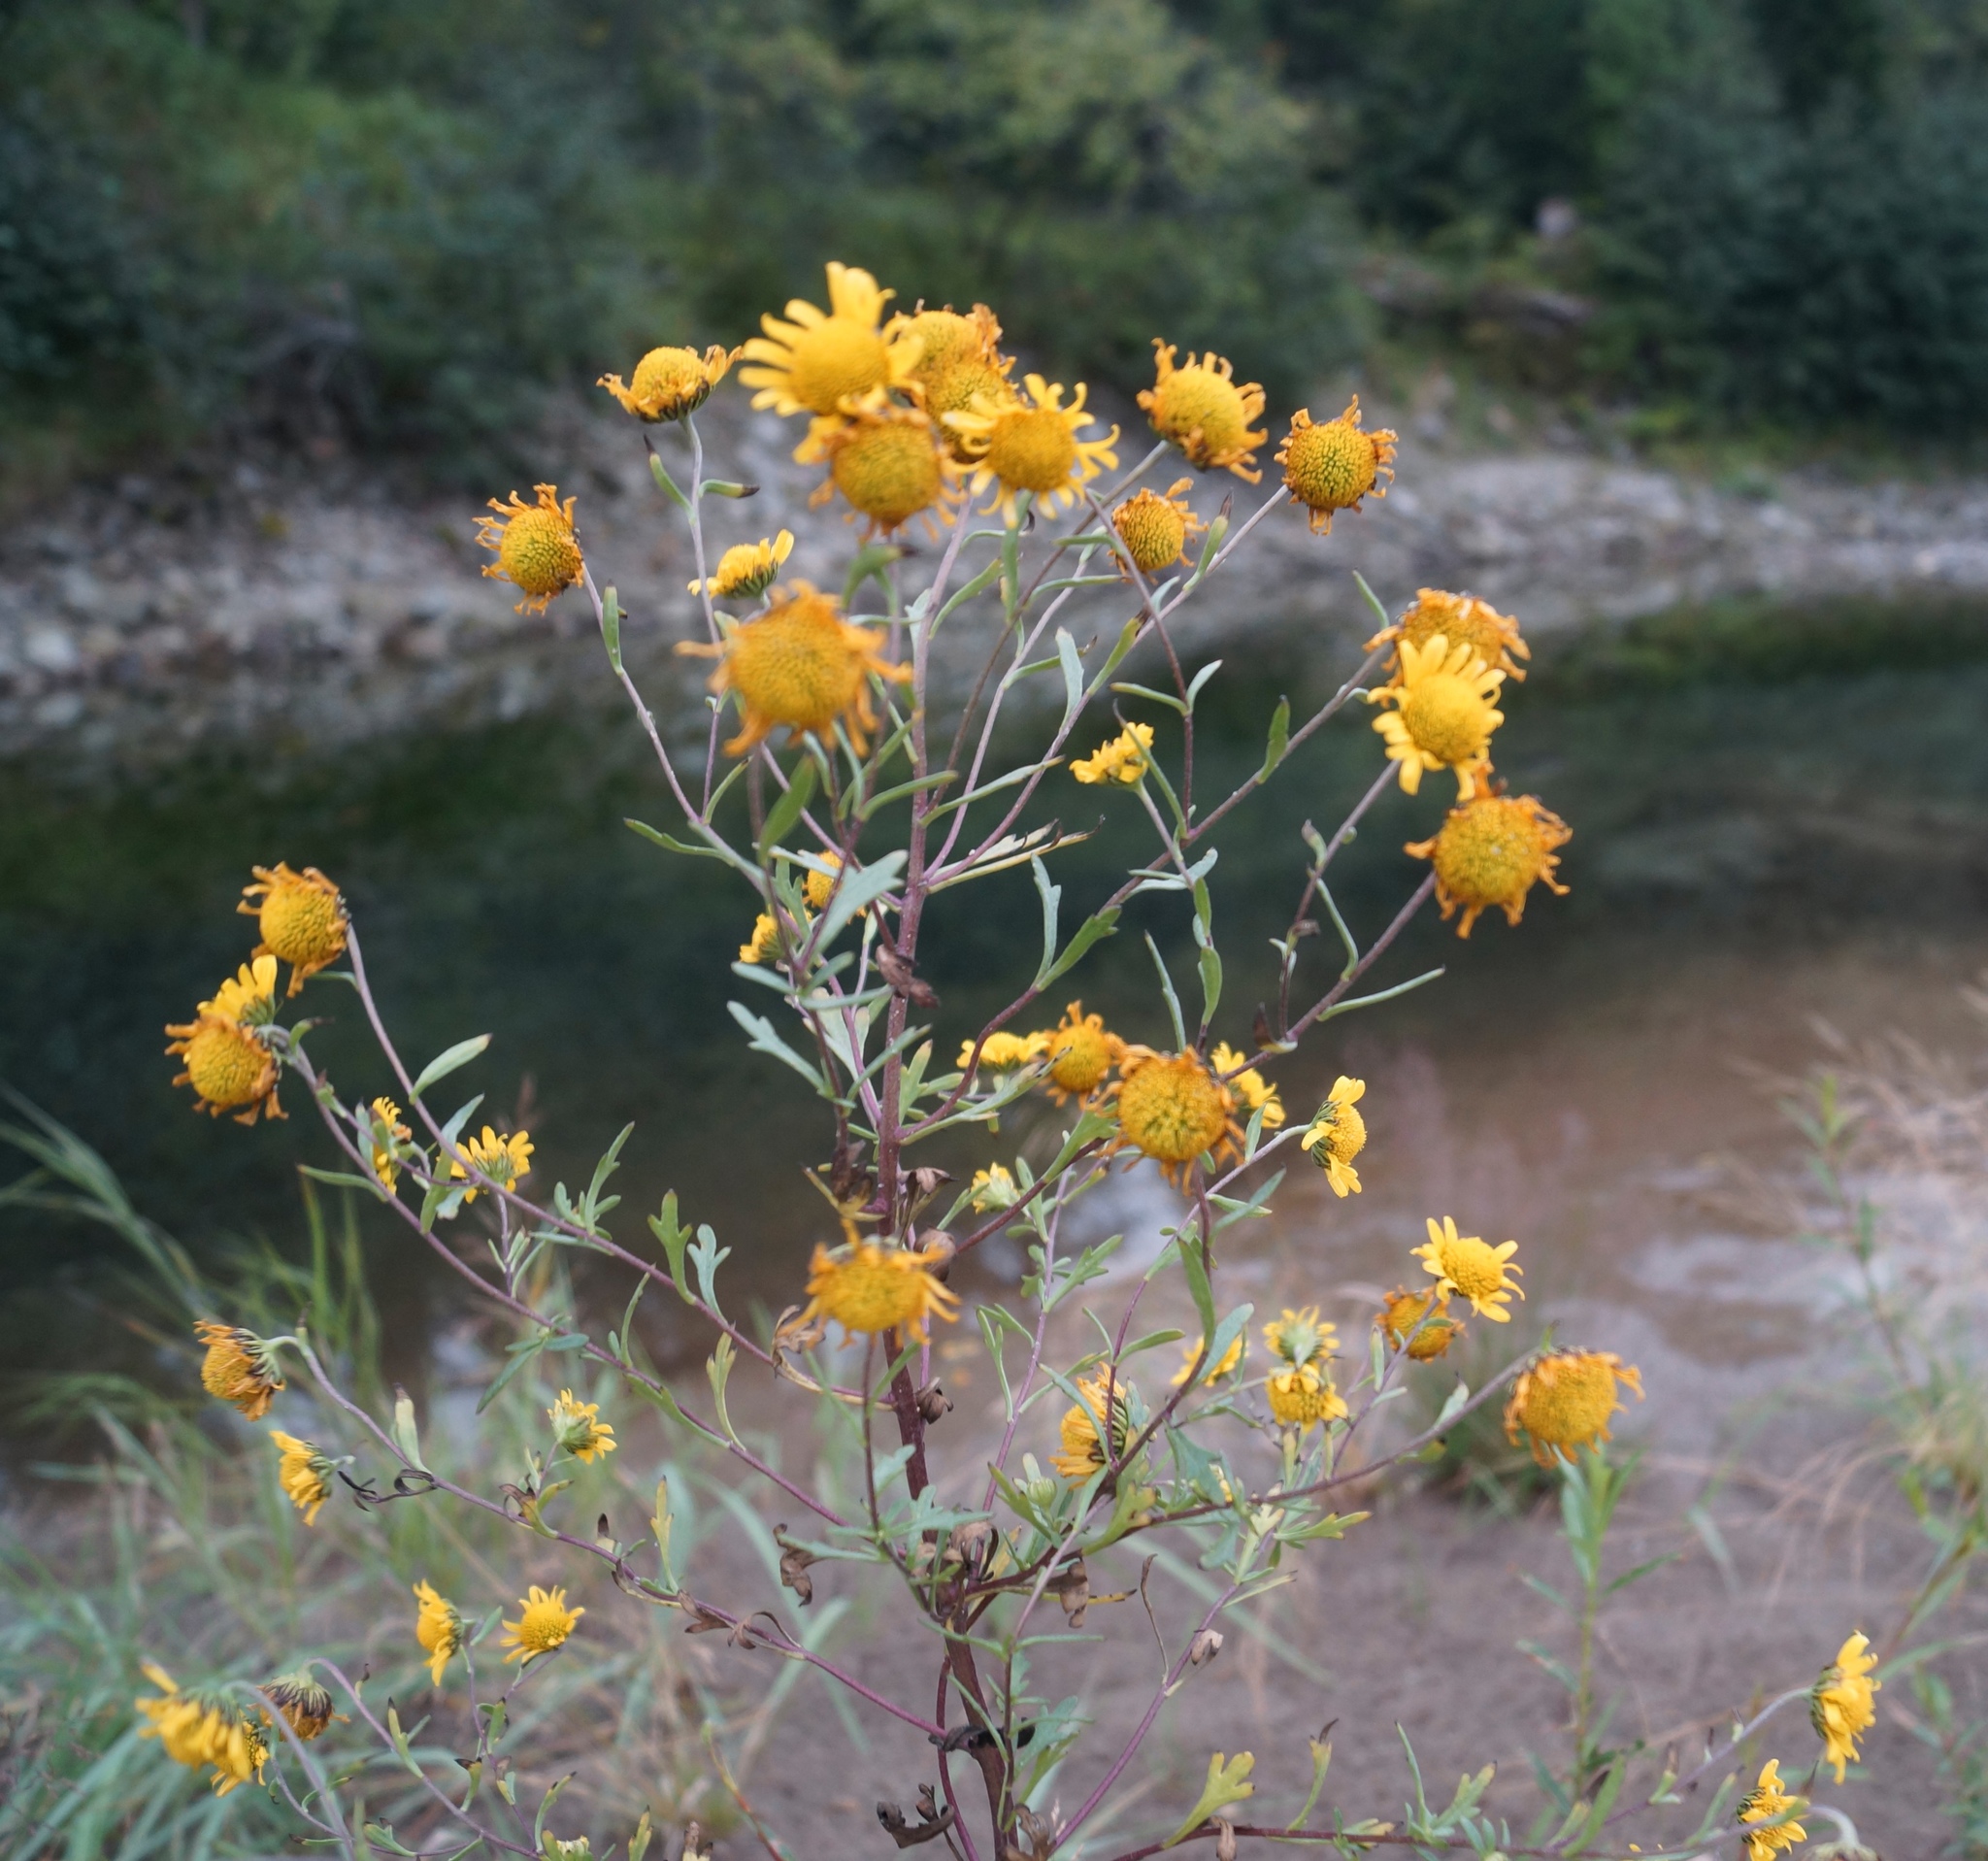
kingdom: Plantae
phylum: Tracheophyta
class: Magnoliopsida
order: Asterales
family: Asteraceae
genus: Tridactylina
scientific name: Tridactylina kirilowii
